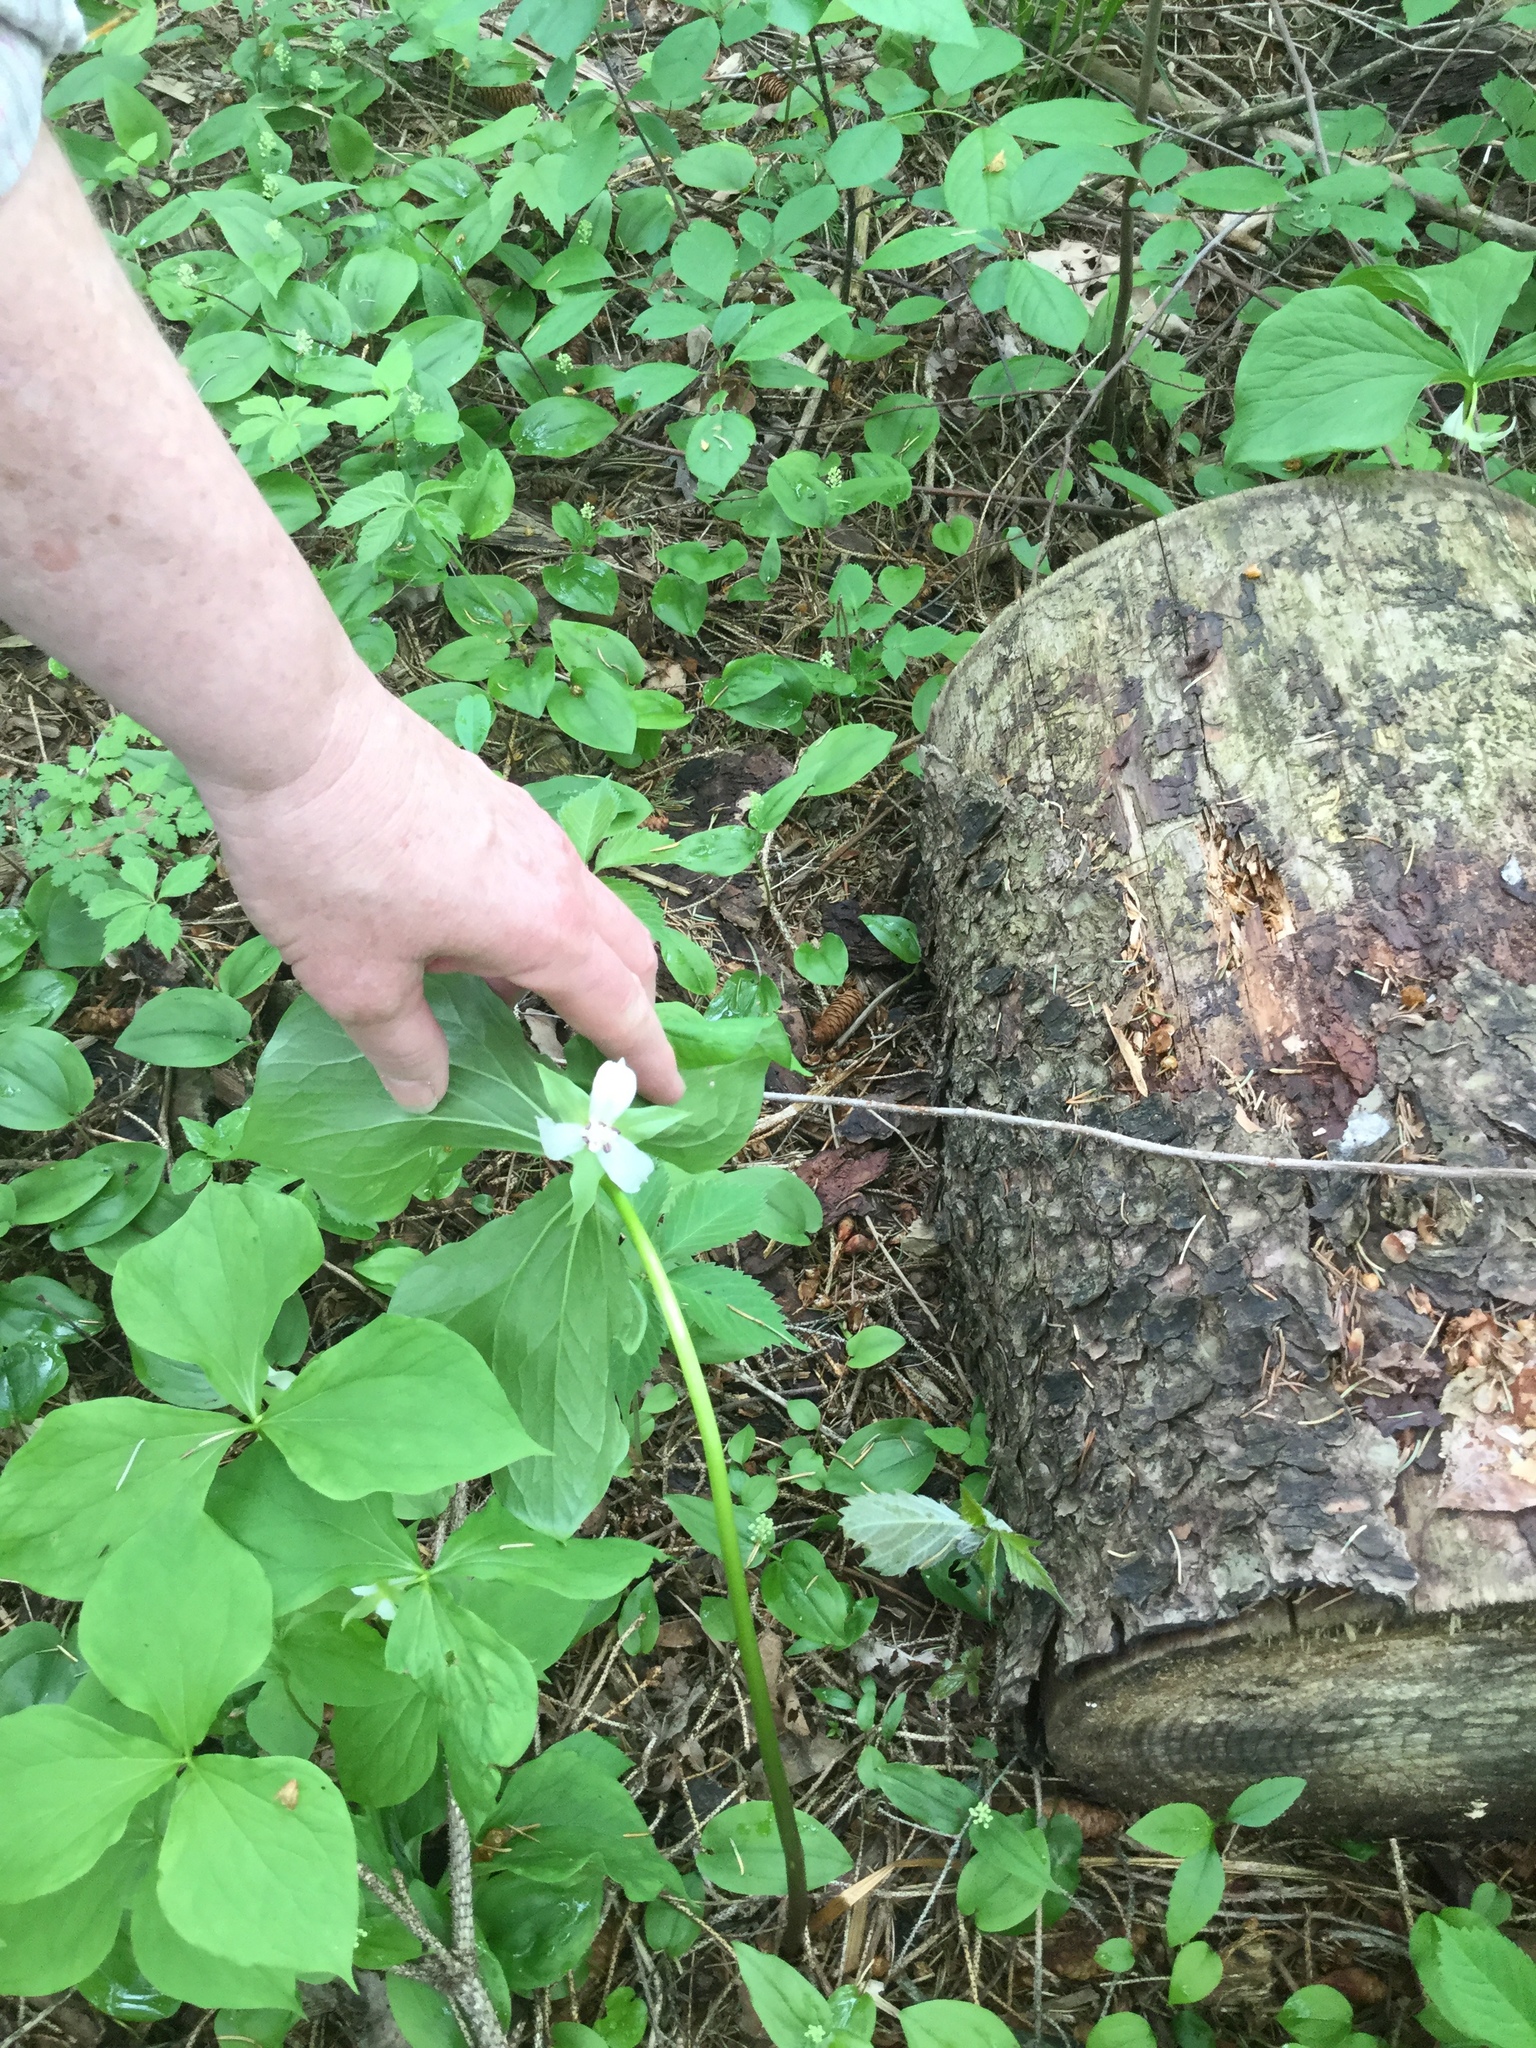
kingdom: Plantae
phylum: Tracheophyta
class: Liliopsida
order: Liliales
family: Melanthiaceae
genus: Trillium
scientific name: Trillium cernuum
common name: Nodding trillium
